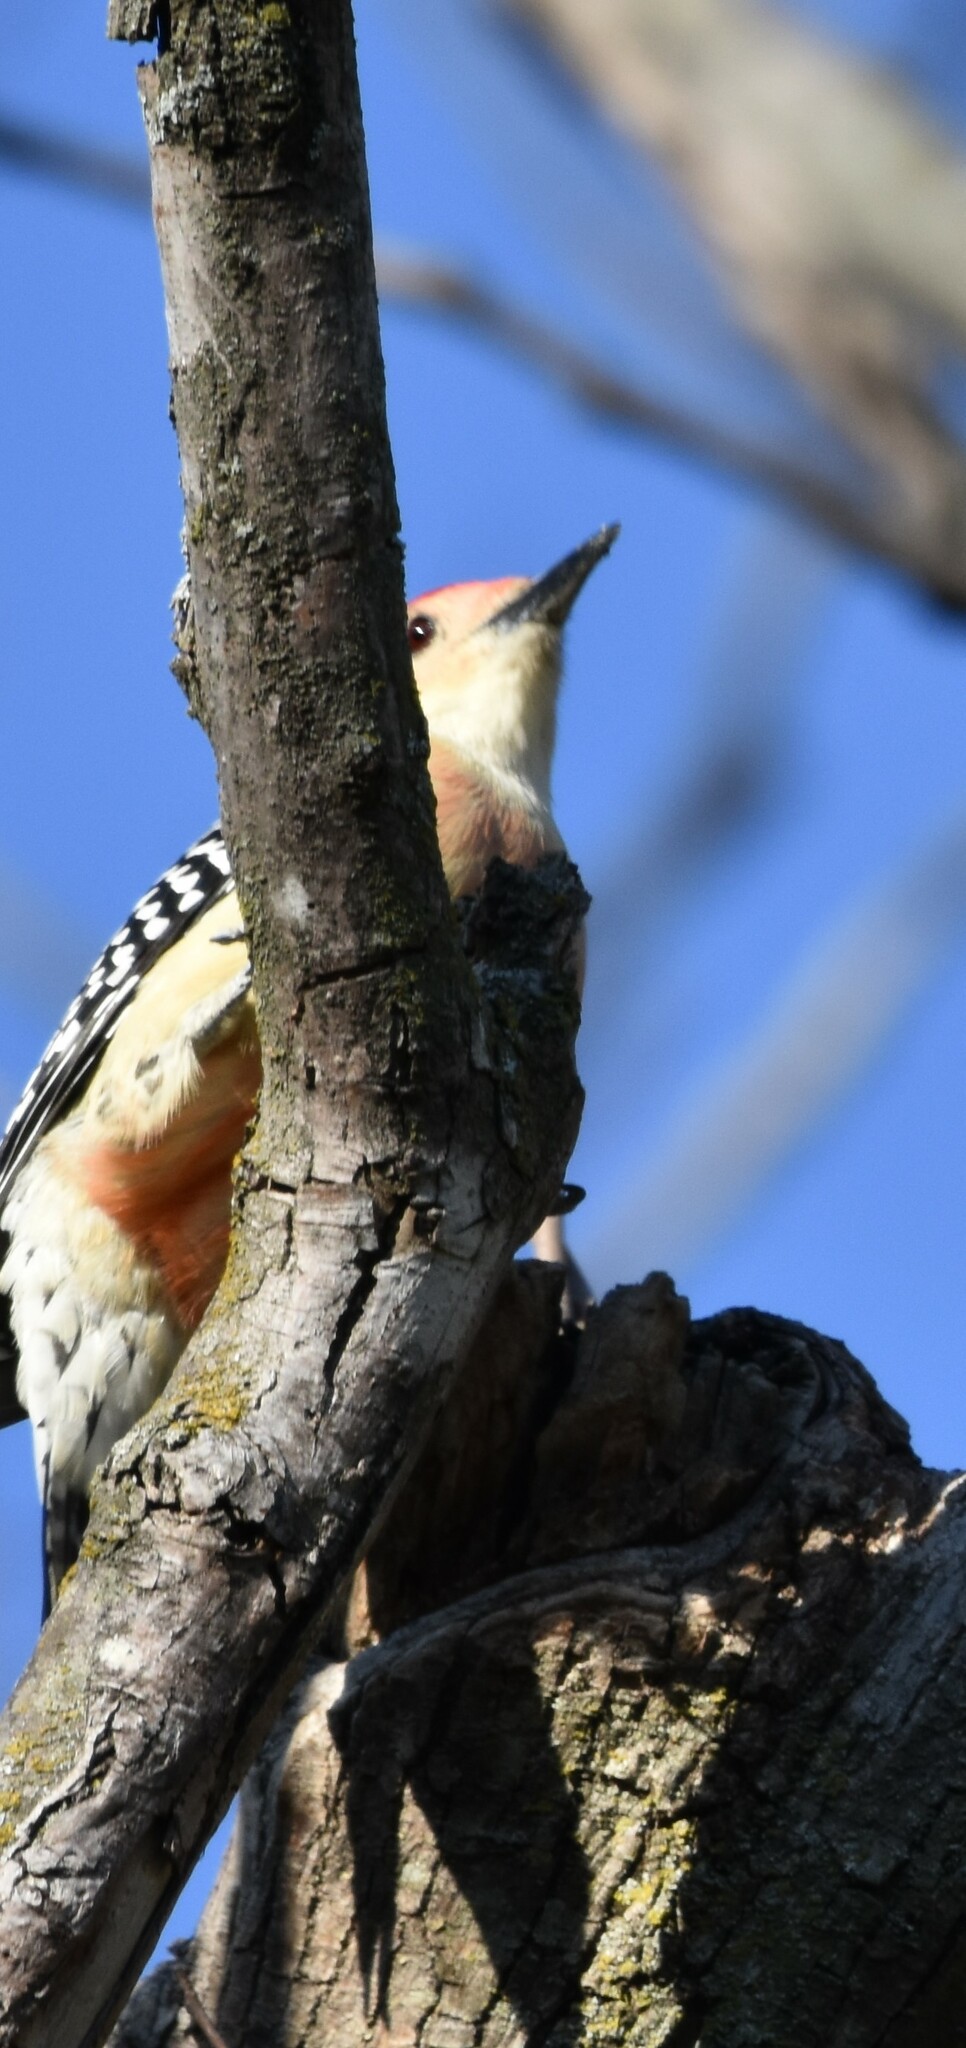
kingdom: Animalia
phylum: Chordata
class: Aves
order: Piciformes
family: Picidae
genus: Melanerpes
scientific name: Melanerpes carolinus
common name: Red-bellied woodpecker
